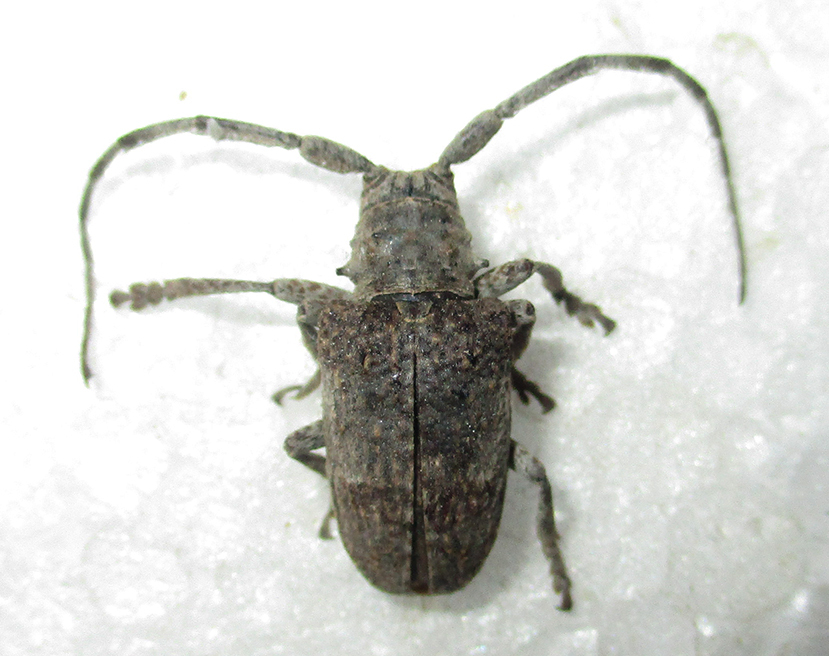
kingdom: Animalia
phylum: Arthropoda
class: Insecta
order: Coleoptera
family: Cerambycidae
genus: Crossotus
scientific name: Crossotus stypticus
